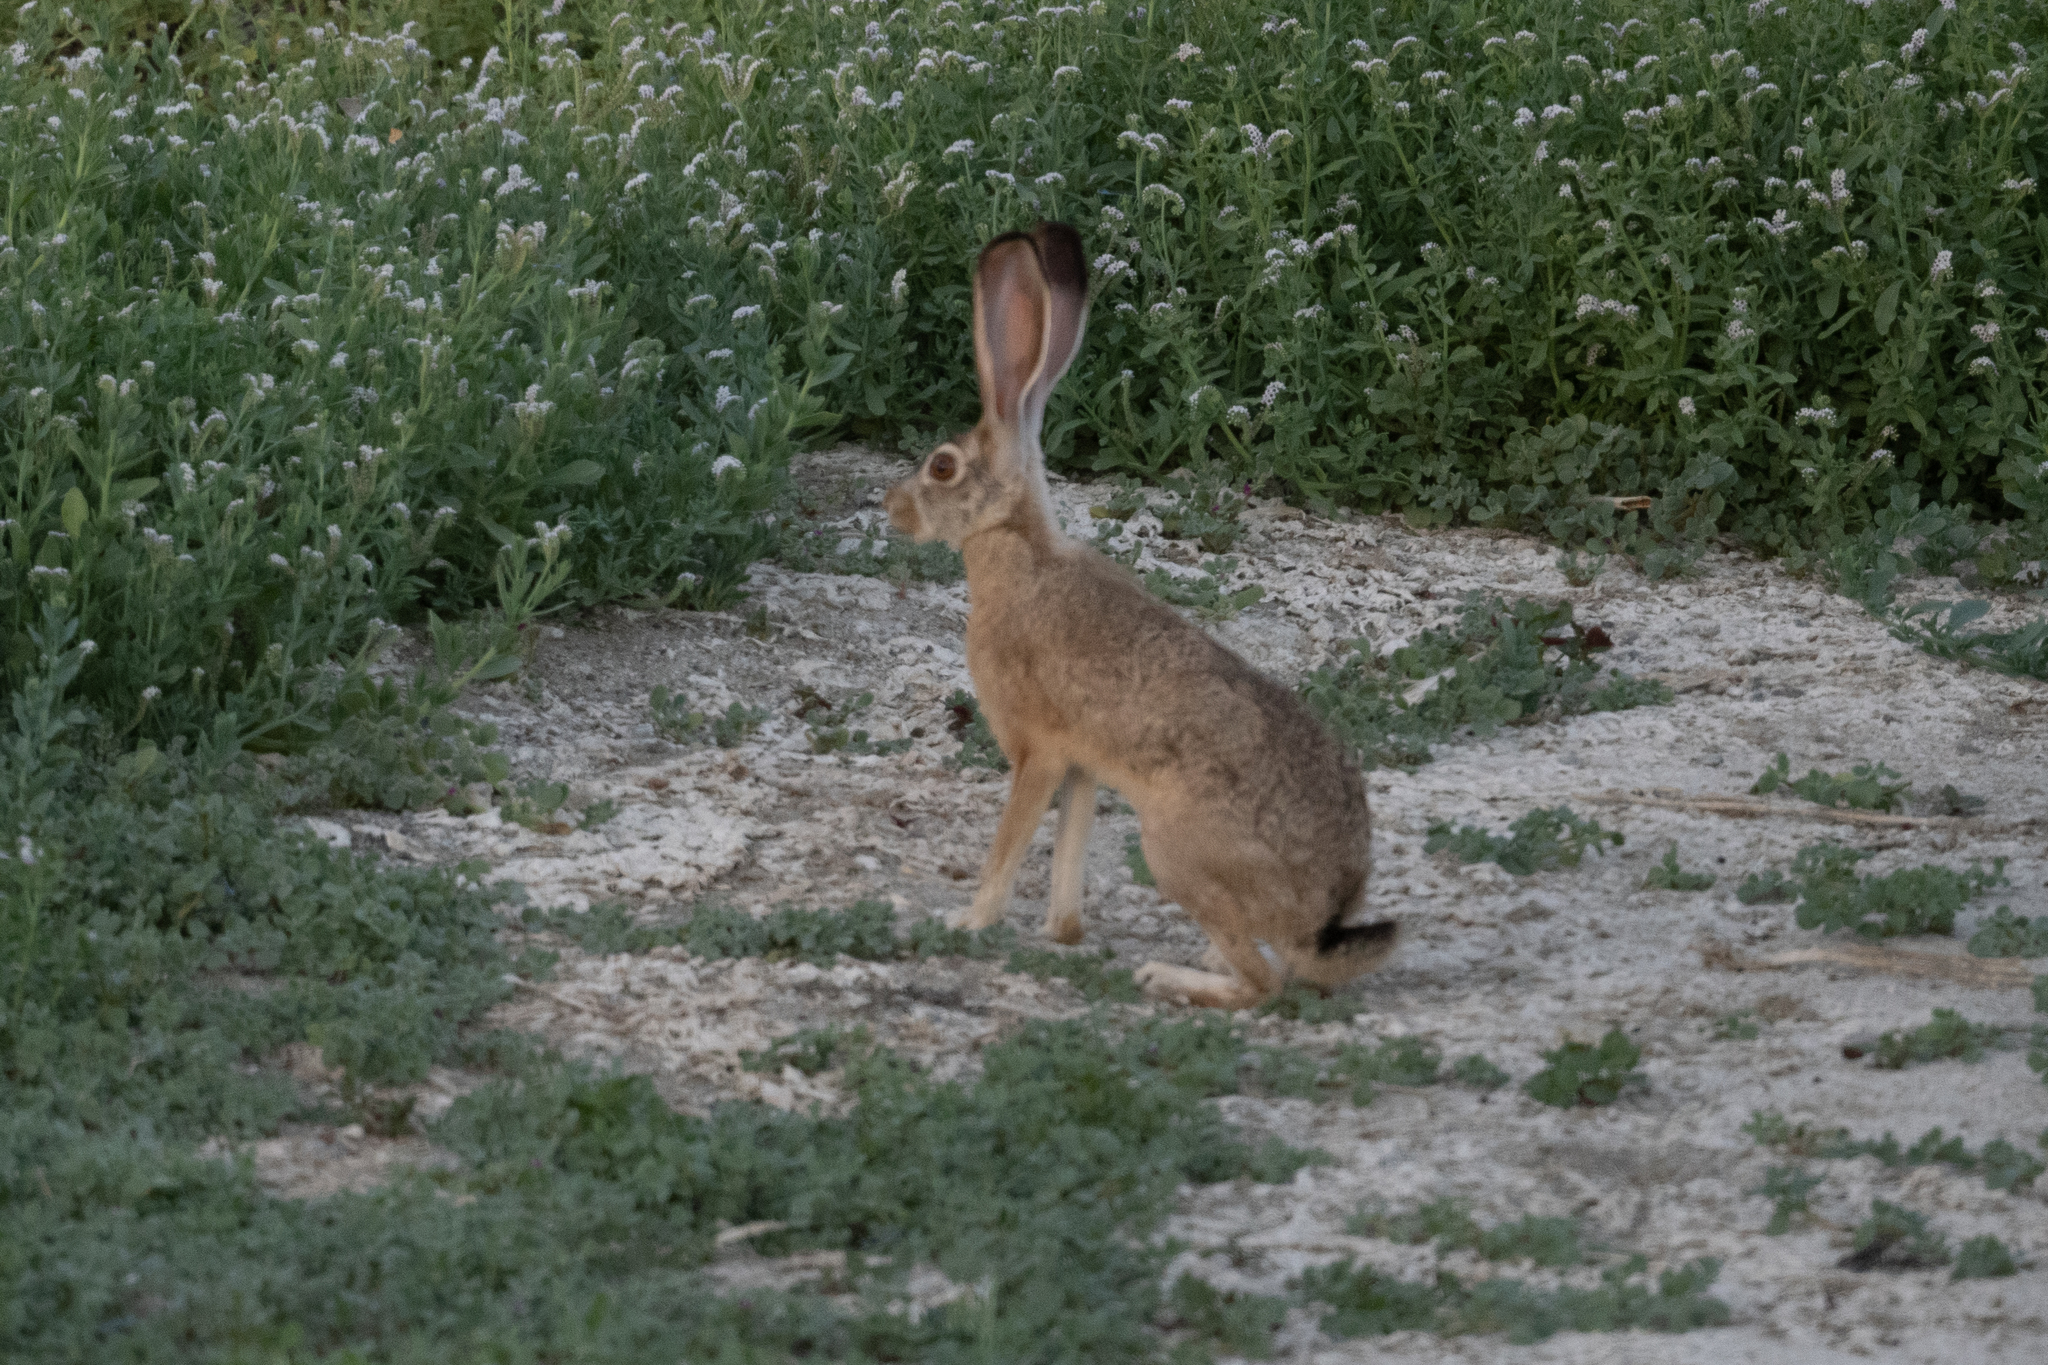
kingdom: Animalia
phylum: Chordata
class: Mammalia
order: Lagomorpha
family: Leporidae
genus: Lepus
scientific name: Lepus californicus
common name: Black-tailed jackrabbit
